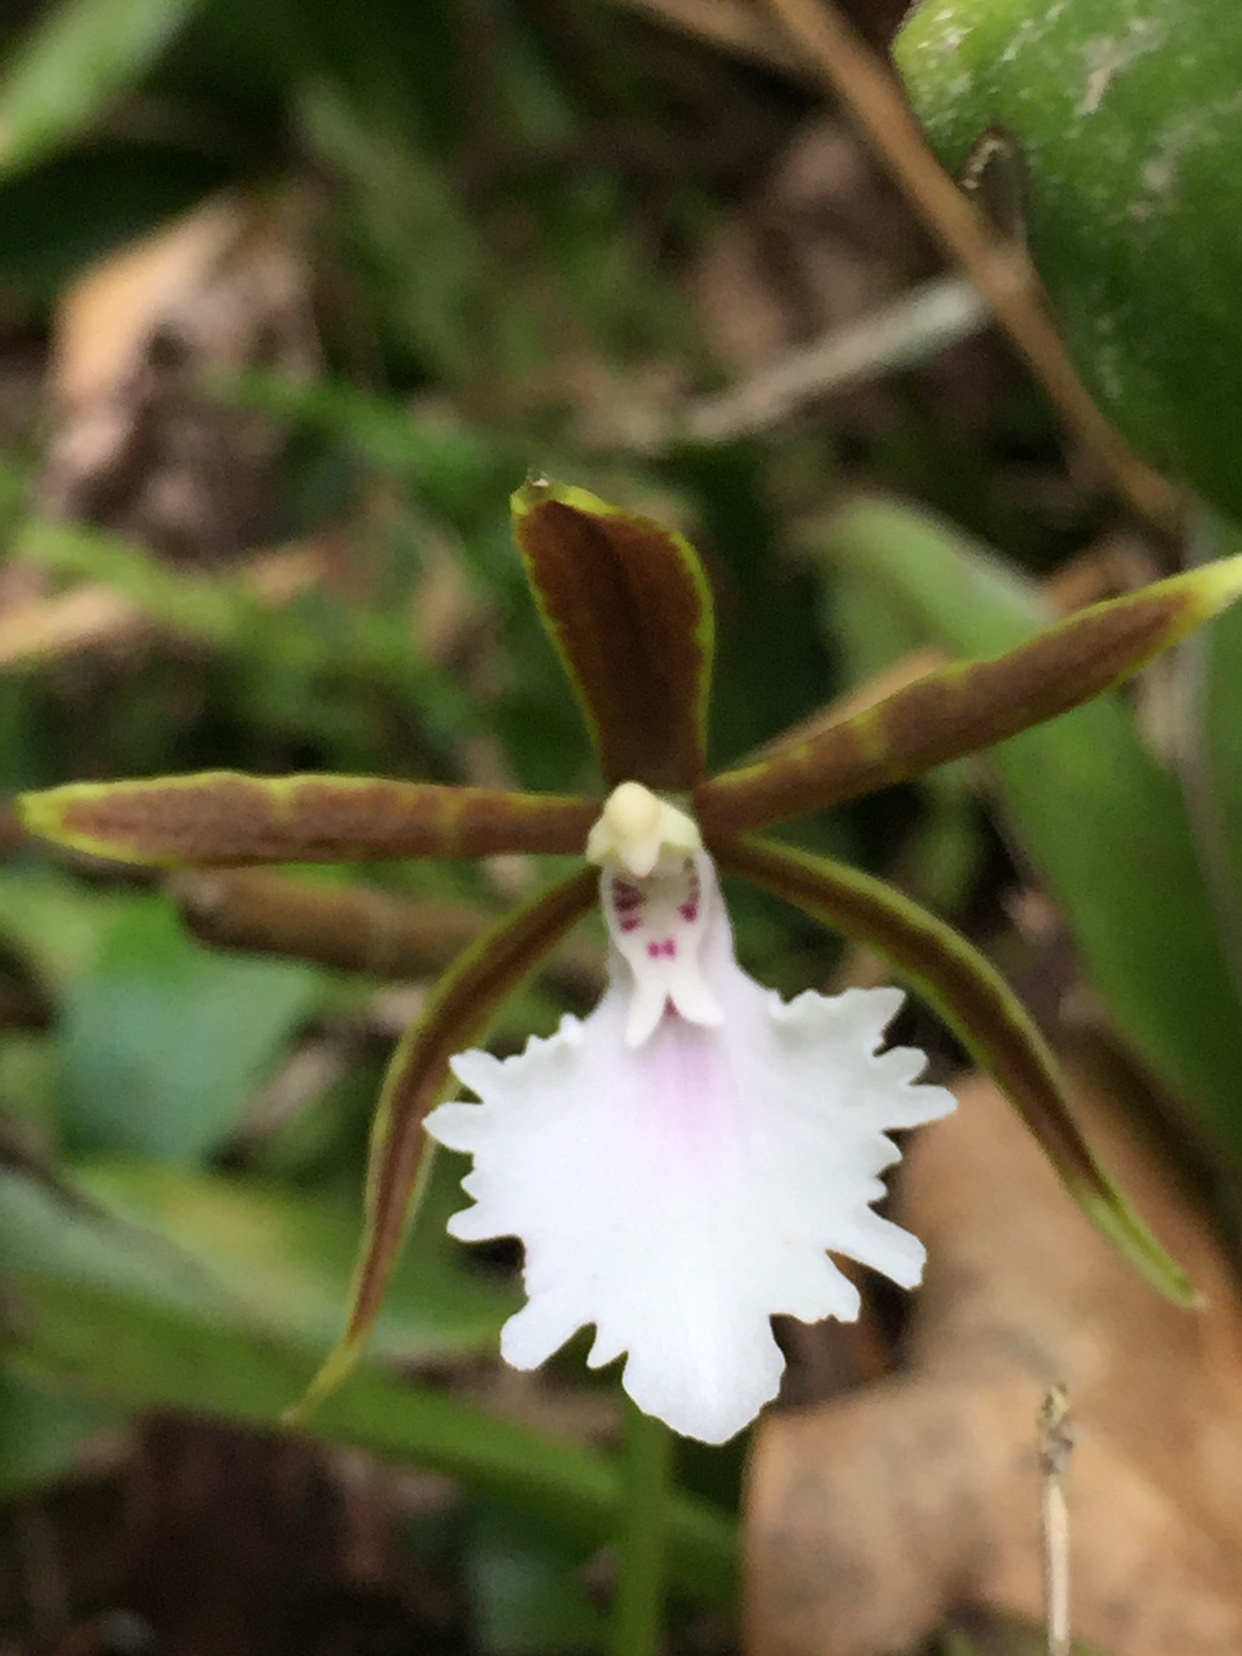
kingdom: Plantae
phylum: Tracheophyta
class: Liliopsida
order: Asparagales
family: Orchidaceae
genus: Rhynchostele
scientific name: Rhynchostele stellata
